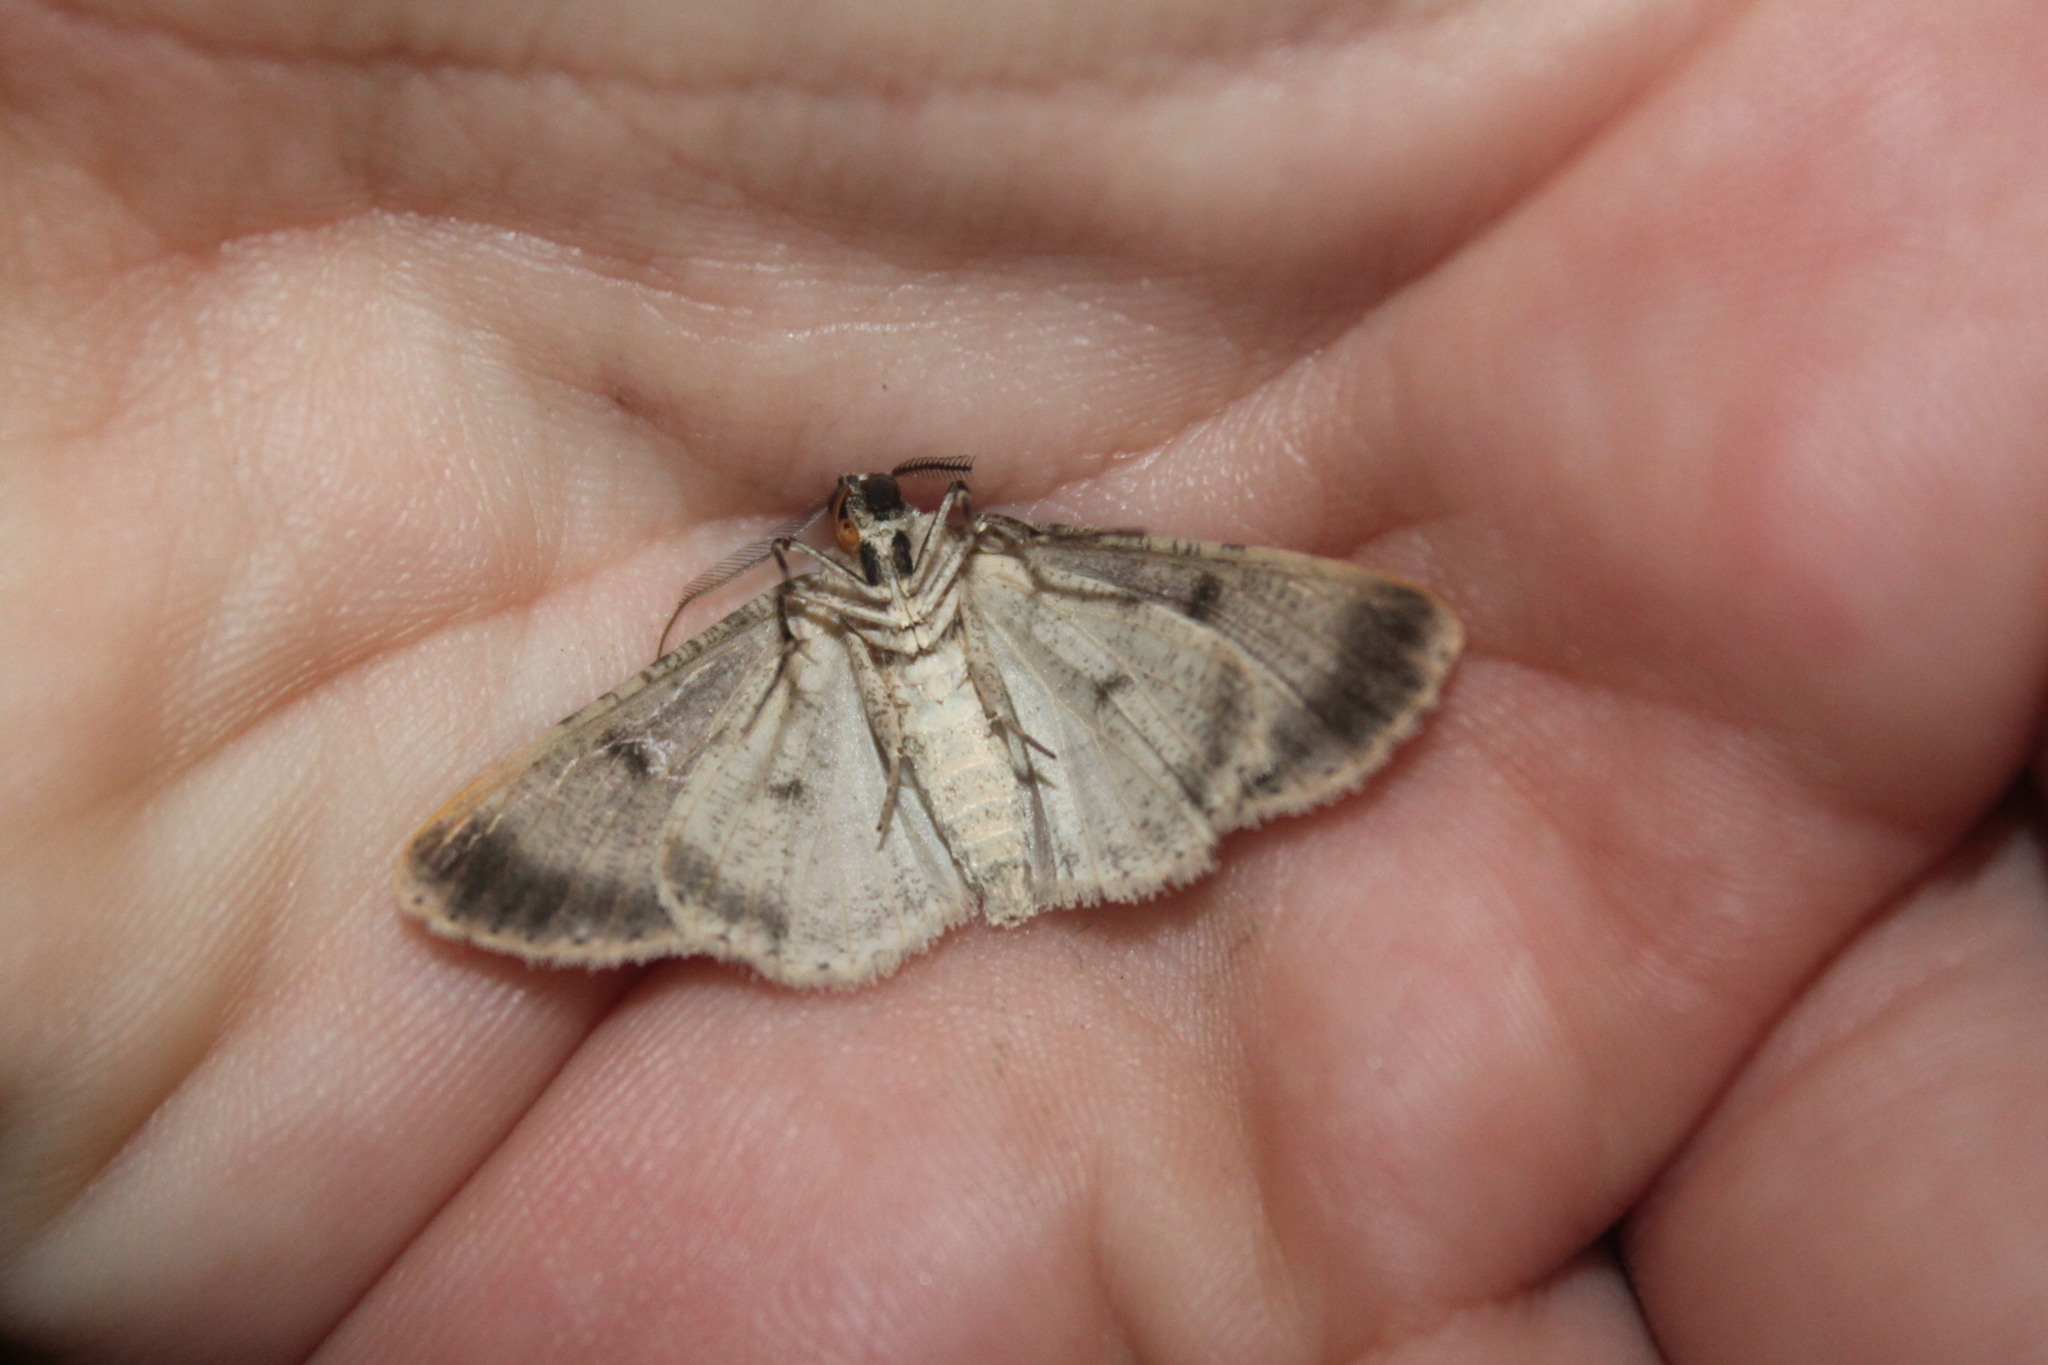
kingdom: Animalia
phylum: Arthropoda
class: Insecta
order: Lepidoptera
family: Geometridae
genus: Iridopsis
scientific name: Iridopsis defectaria
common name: Brown-shaded gray
